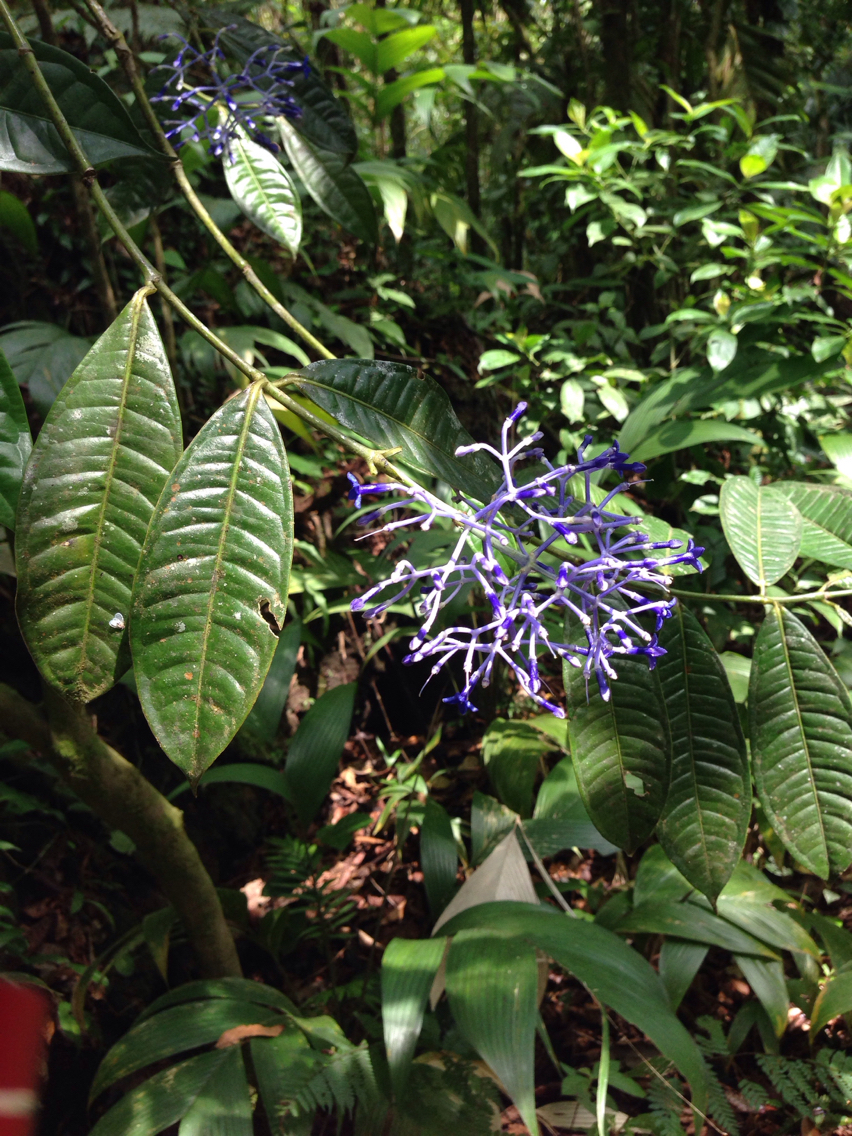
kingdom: Plantae
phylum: Tracheophyta
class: Magnoliopsida
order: Gentianales
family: Rubiaceae
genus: Faramea
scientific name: Faramea suerrensis
